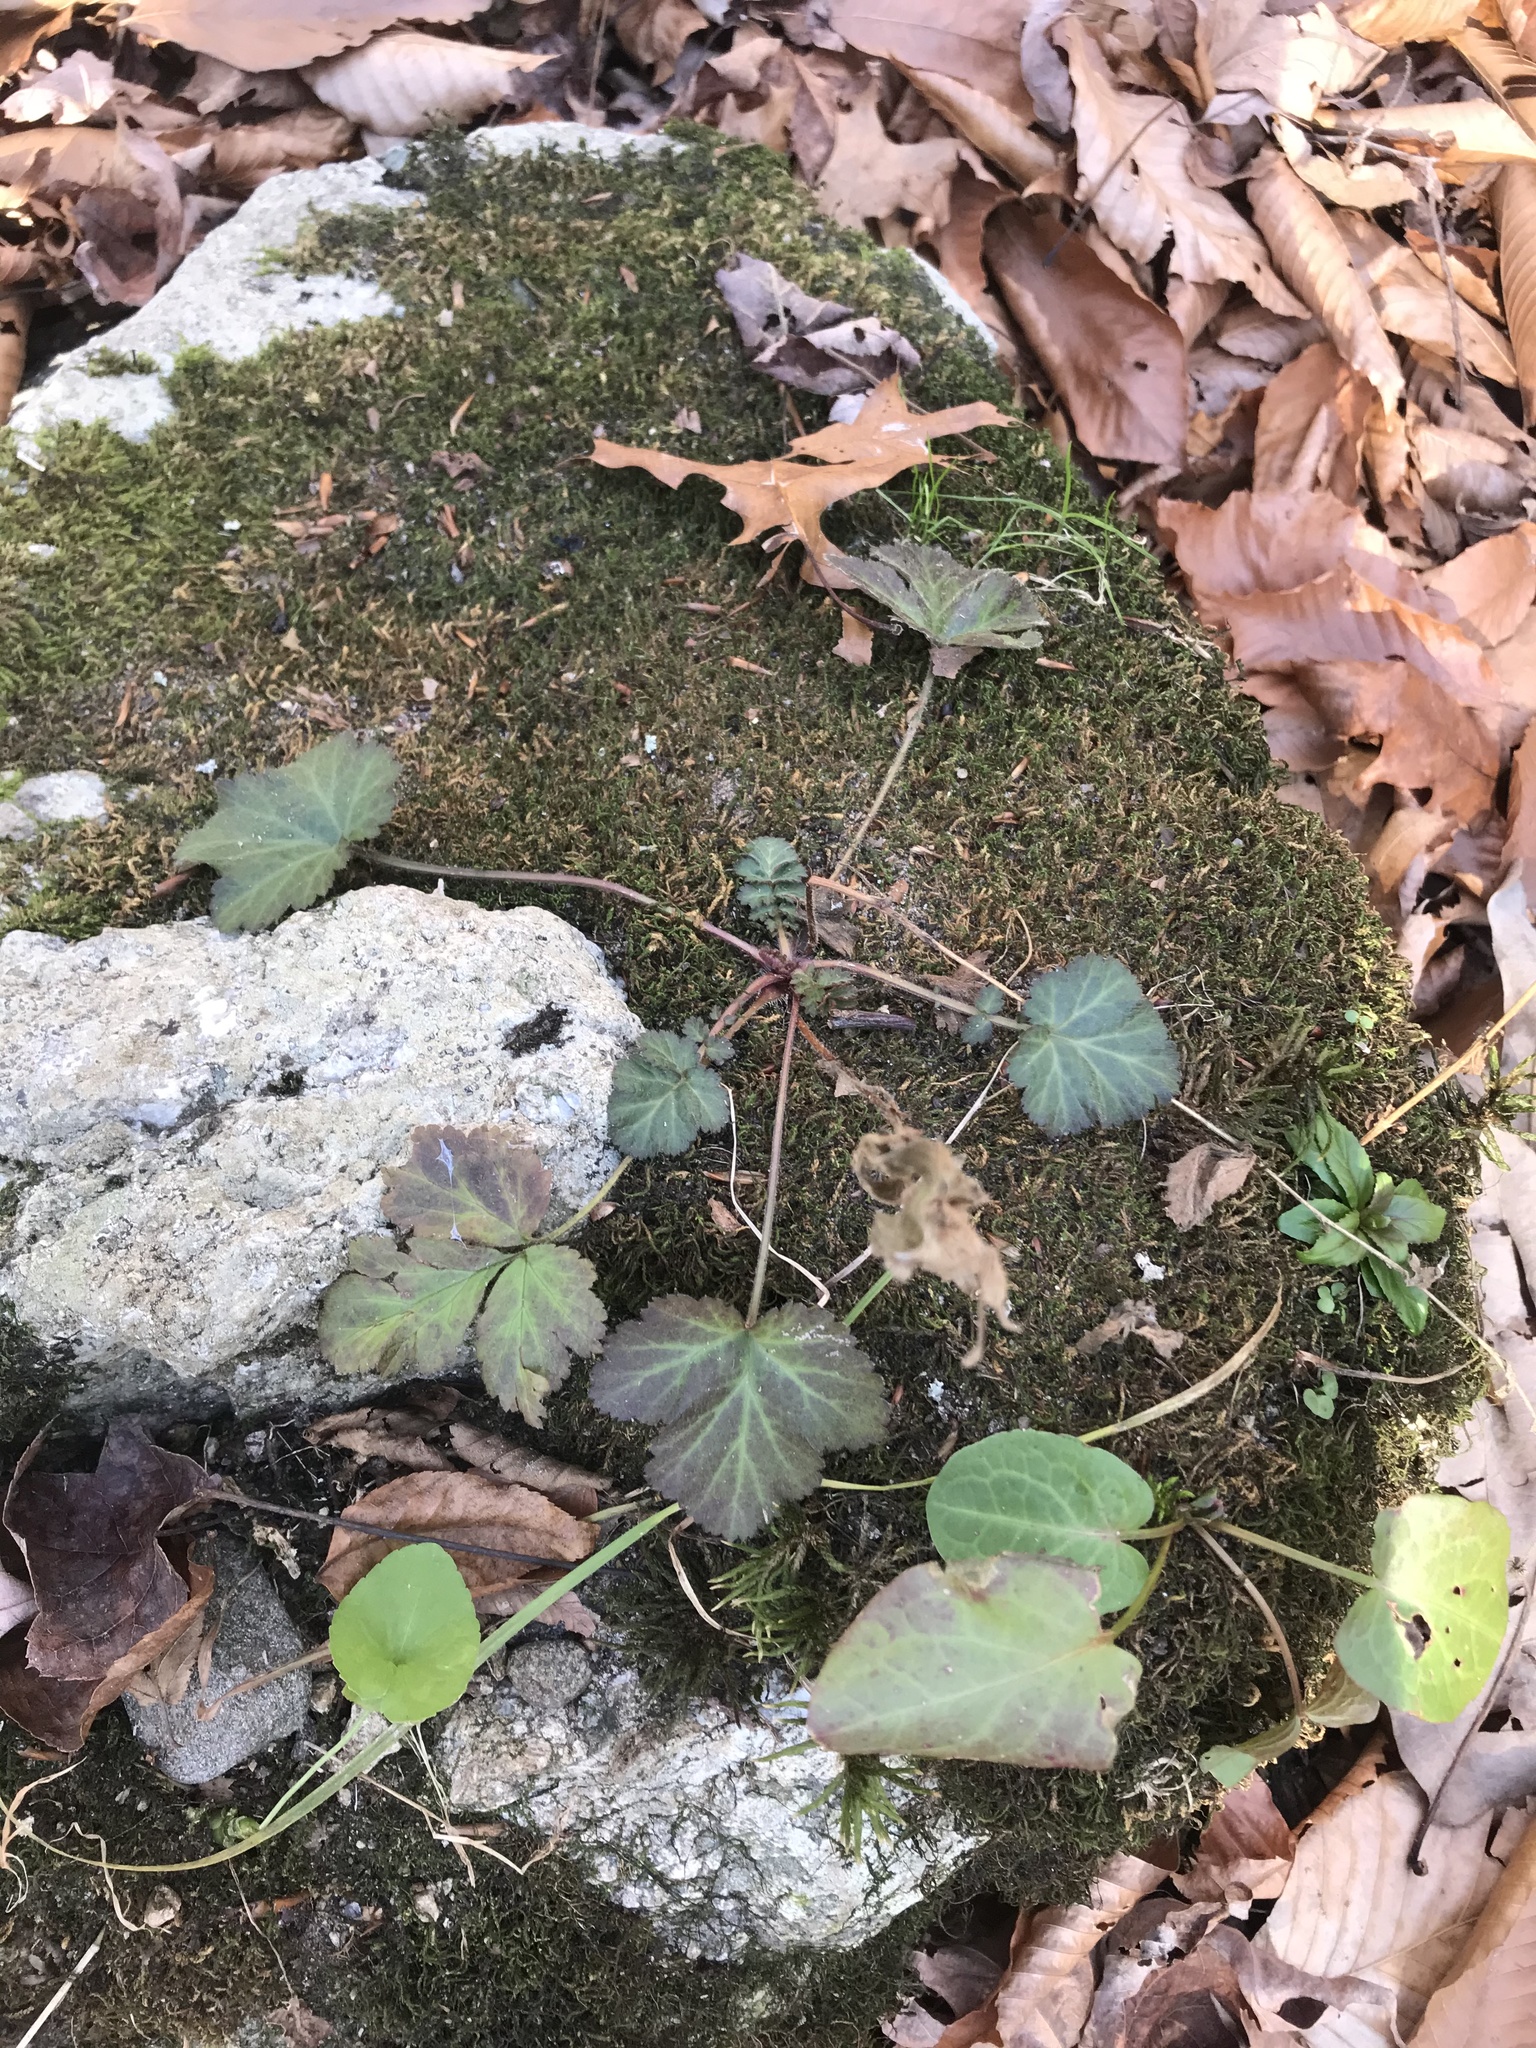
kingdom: Plantae
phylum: Tracheophyta
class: Magnoliopsida
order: Rosales
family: Rosaceae
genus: Geum
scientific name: Geum canadense
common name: White avens
